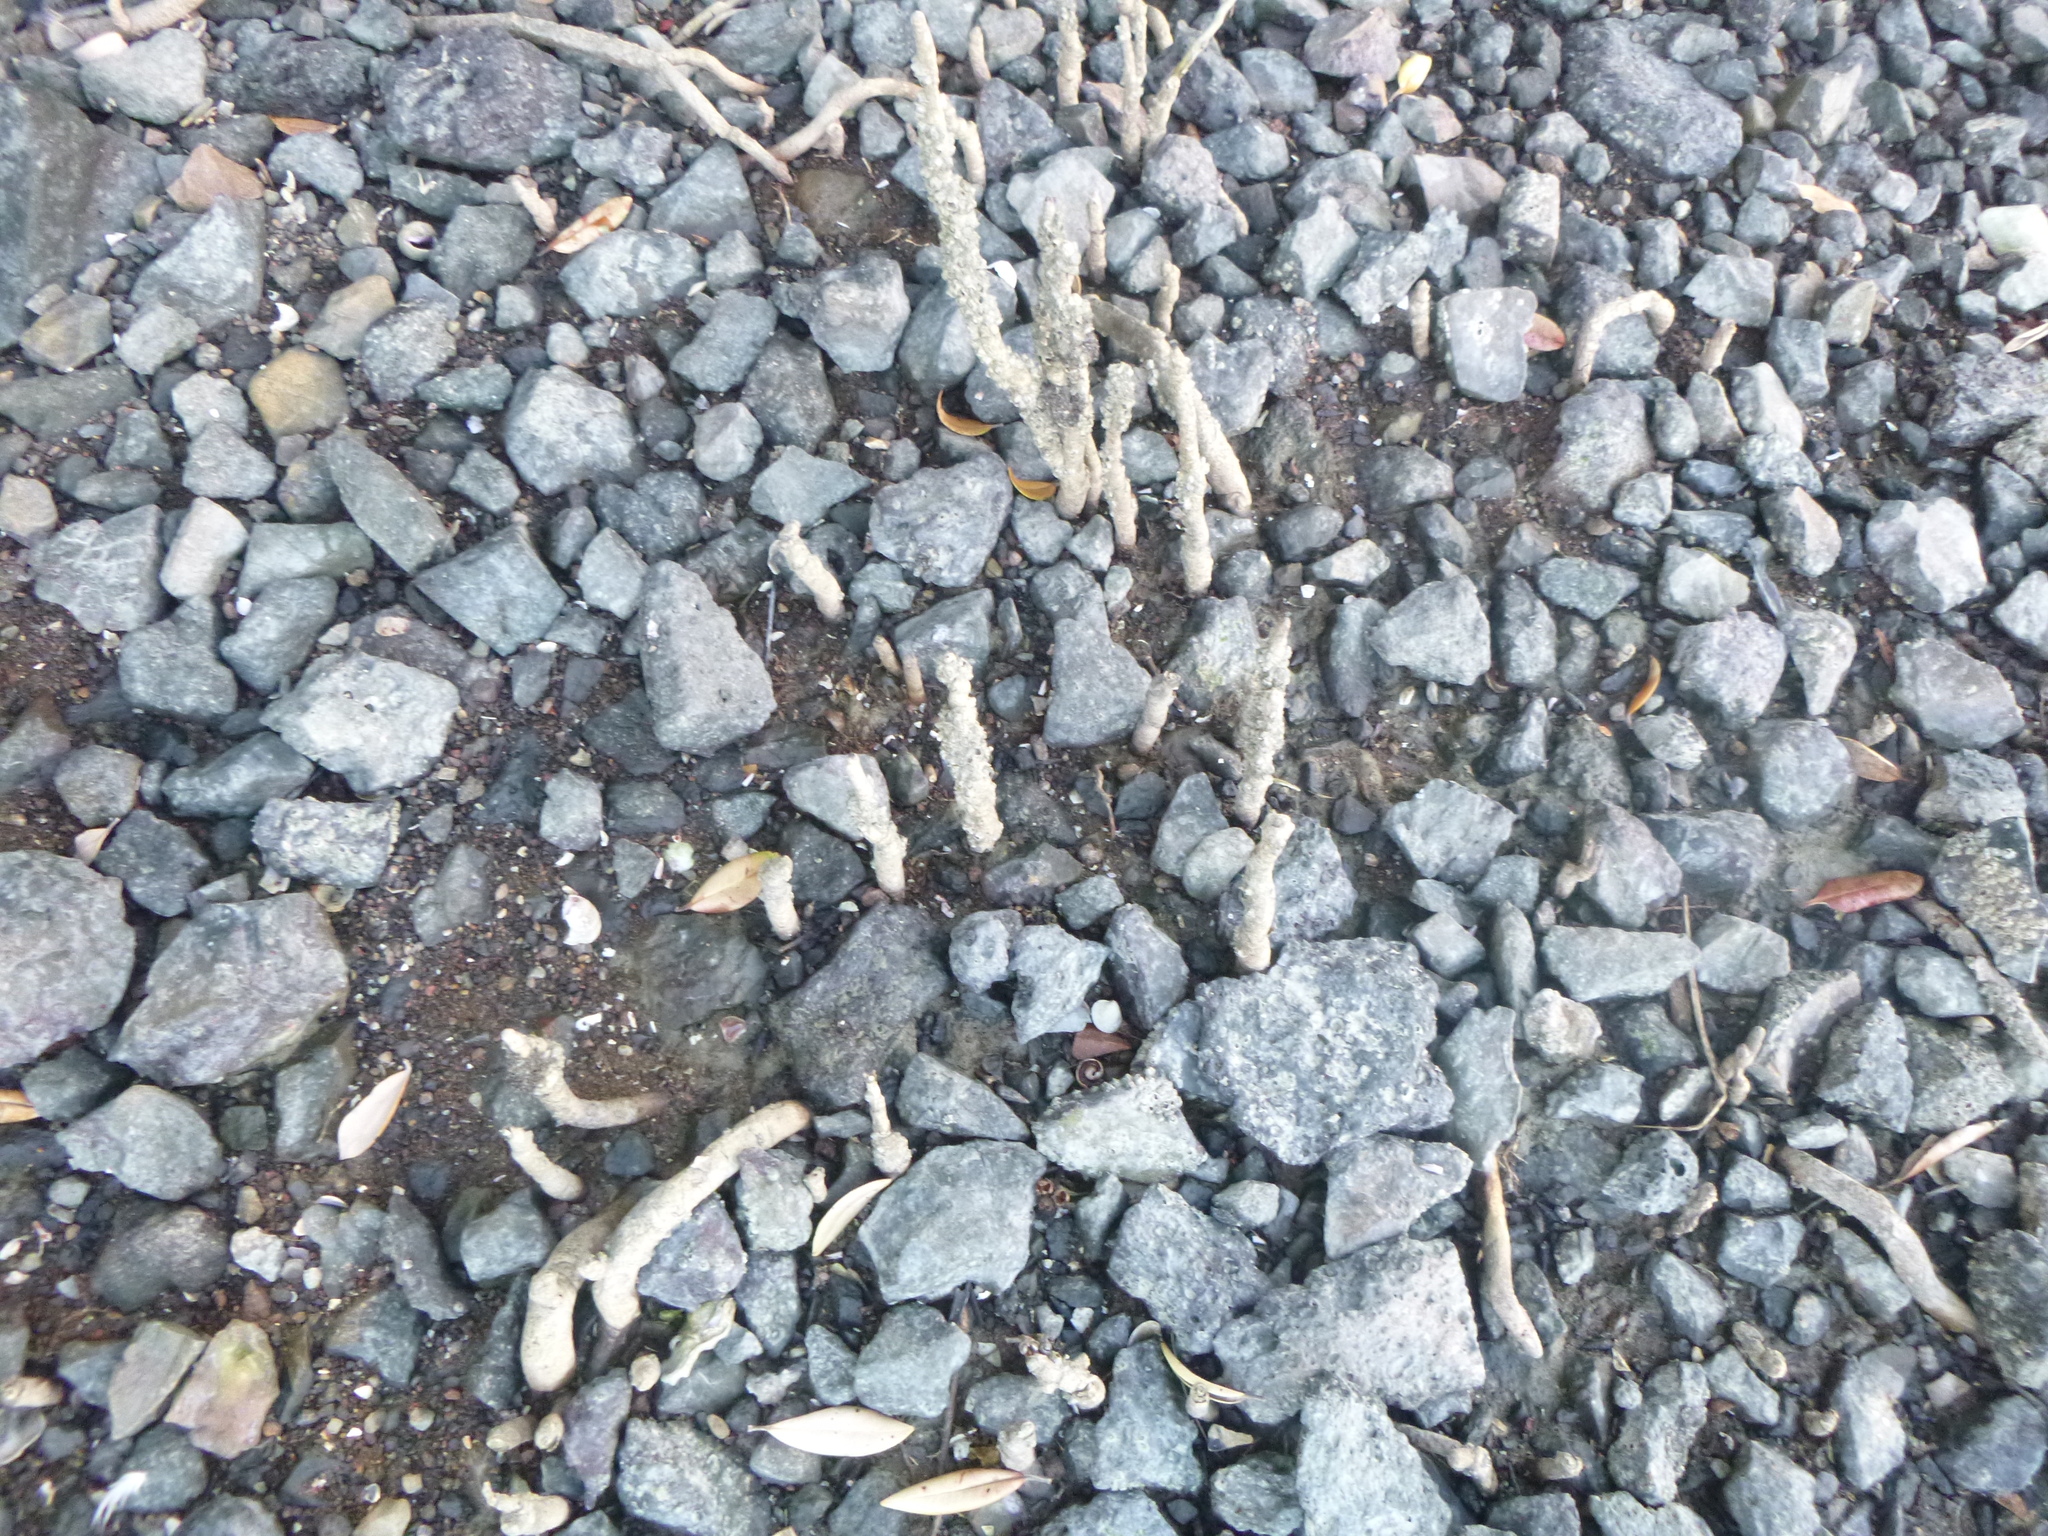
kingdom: Plantae
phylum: Tracheophyta
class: Magnoliopsida
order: Lamiales
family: Acanthaceae
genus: Avicennia
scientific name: Avicennia marina
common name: Gray mangrove
